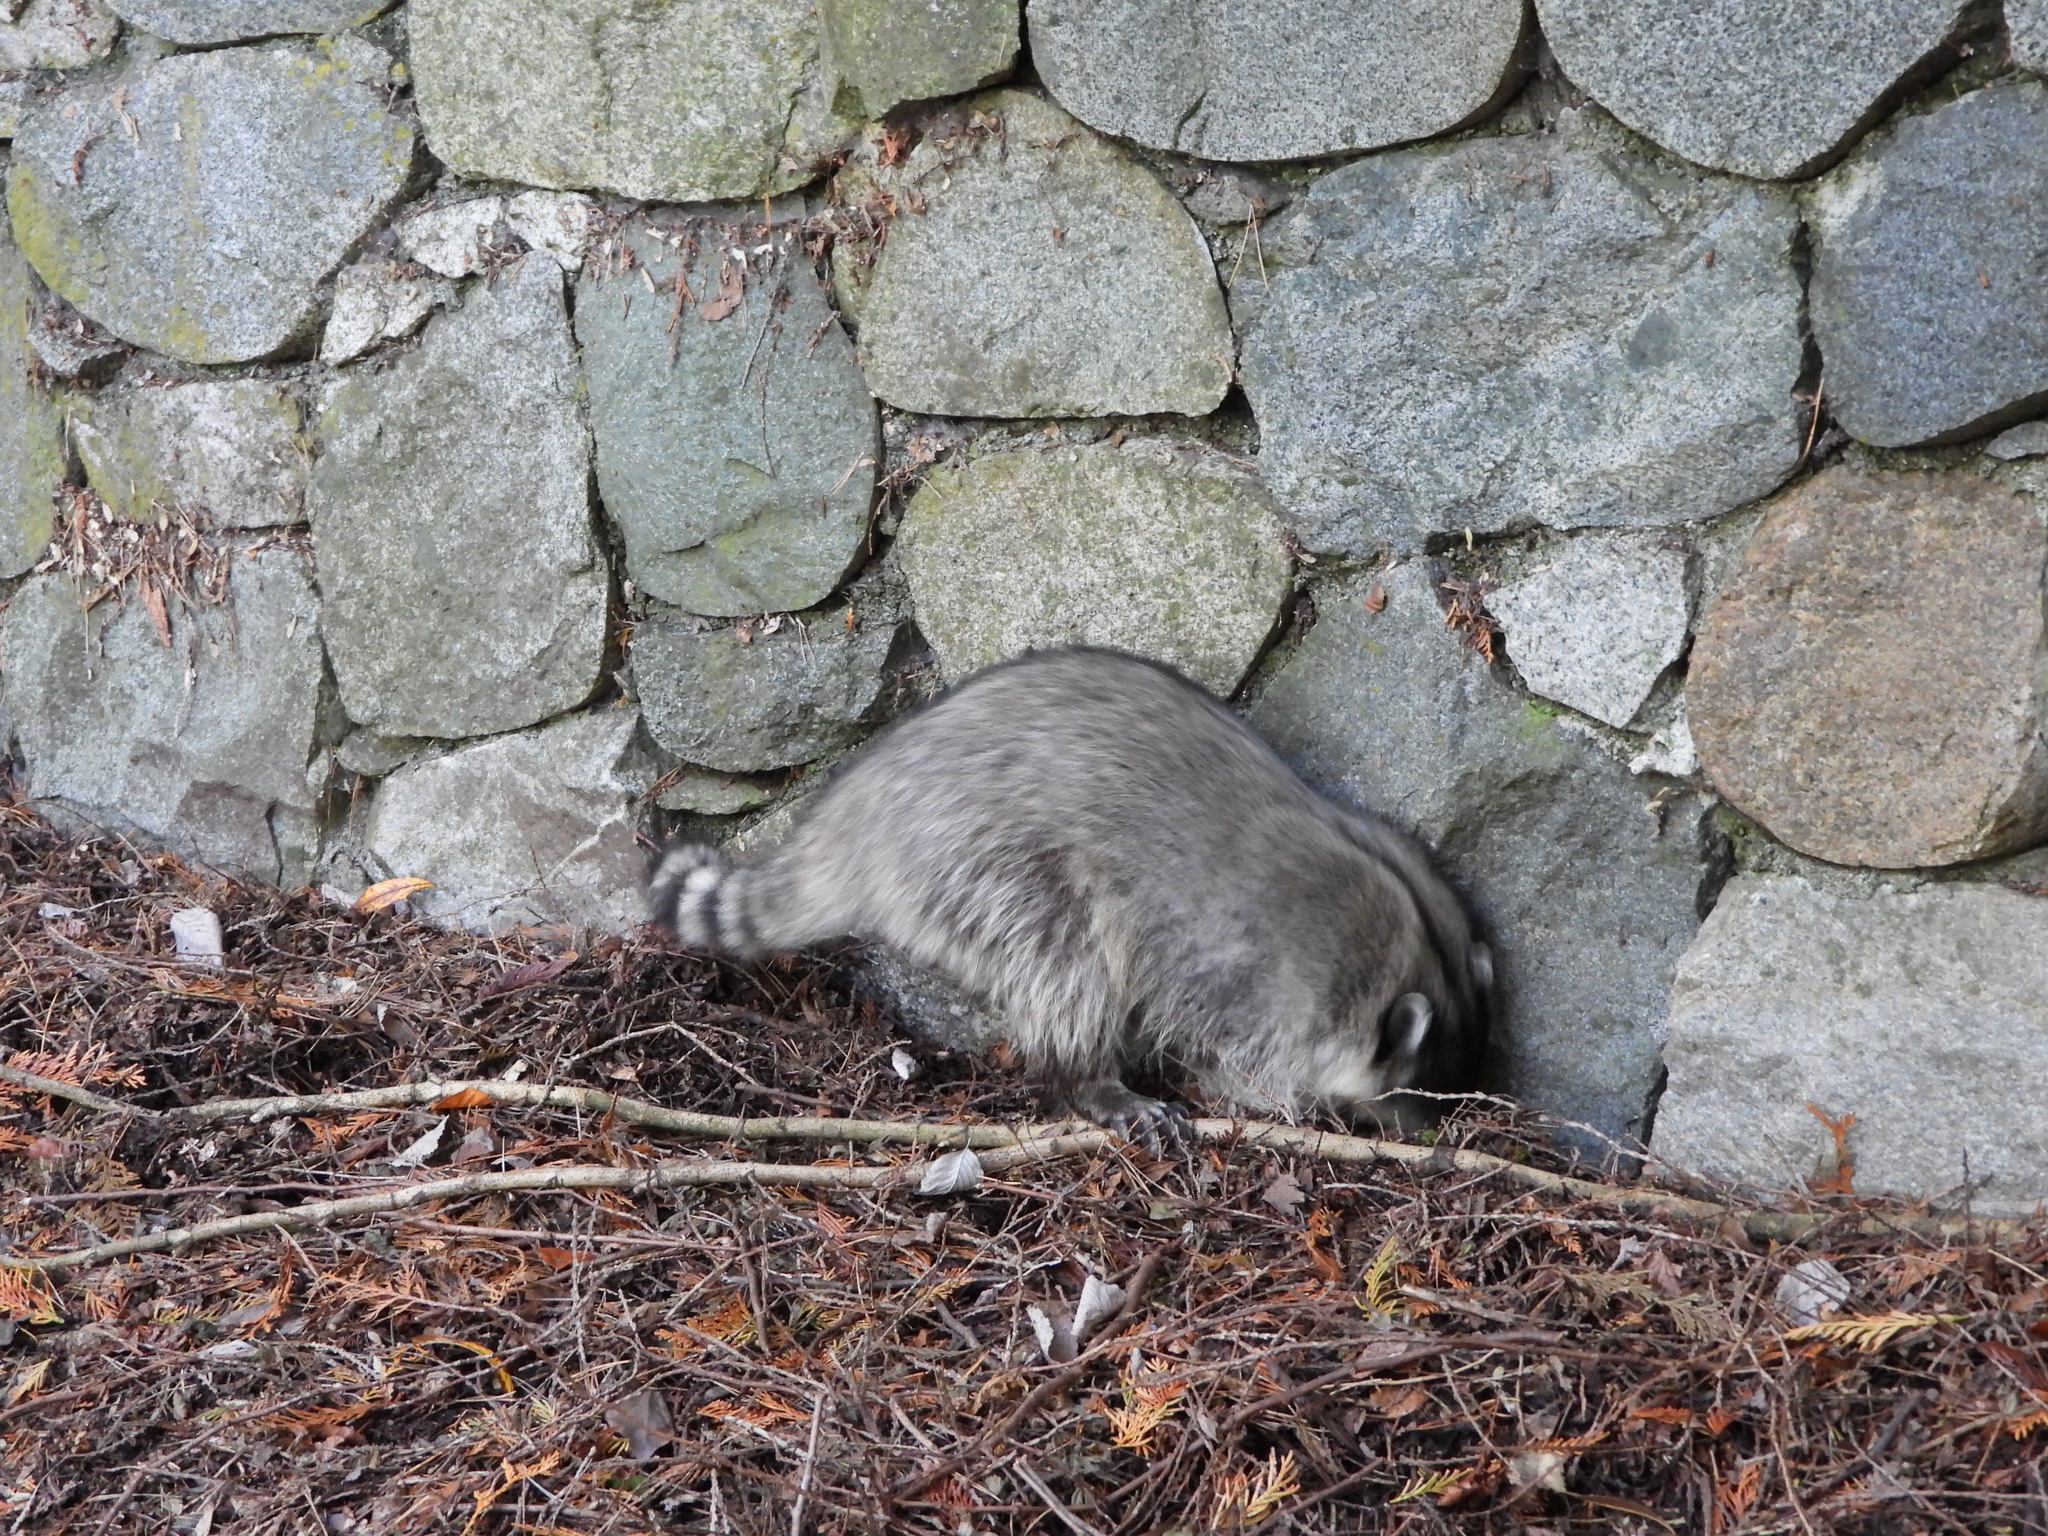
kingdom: Animalia
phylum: Chordata
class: Mammalia
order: Carnivora
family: Procyonidae
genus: Procyon
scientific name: Procyon lotor
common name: Raccoon
